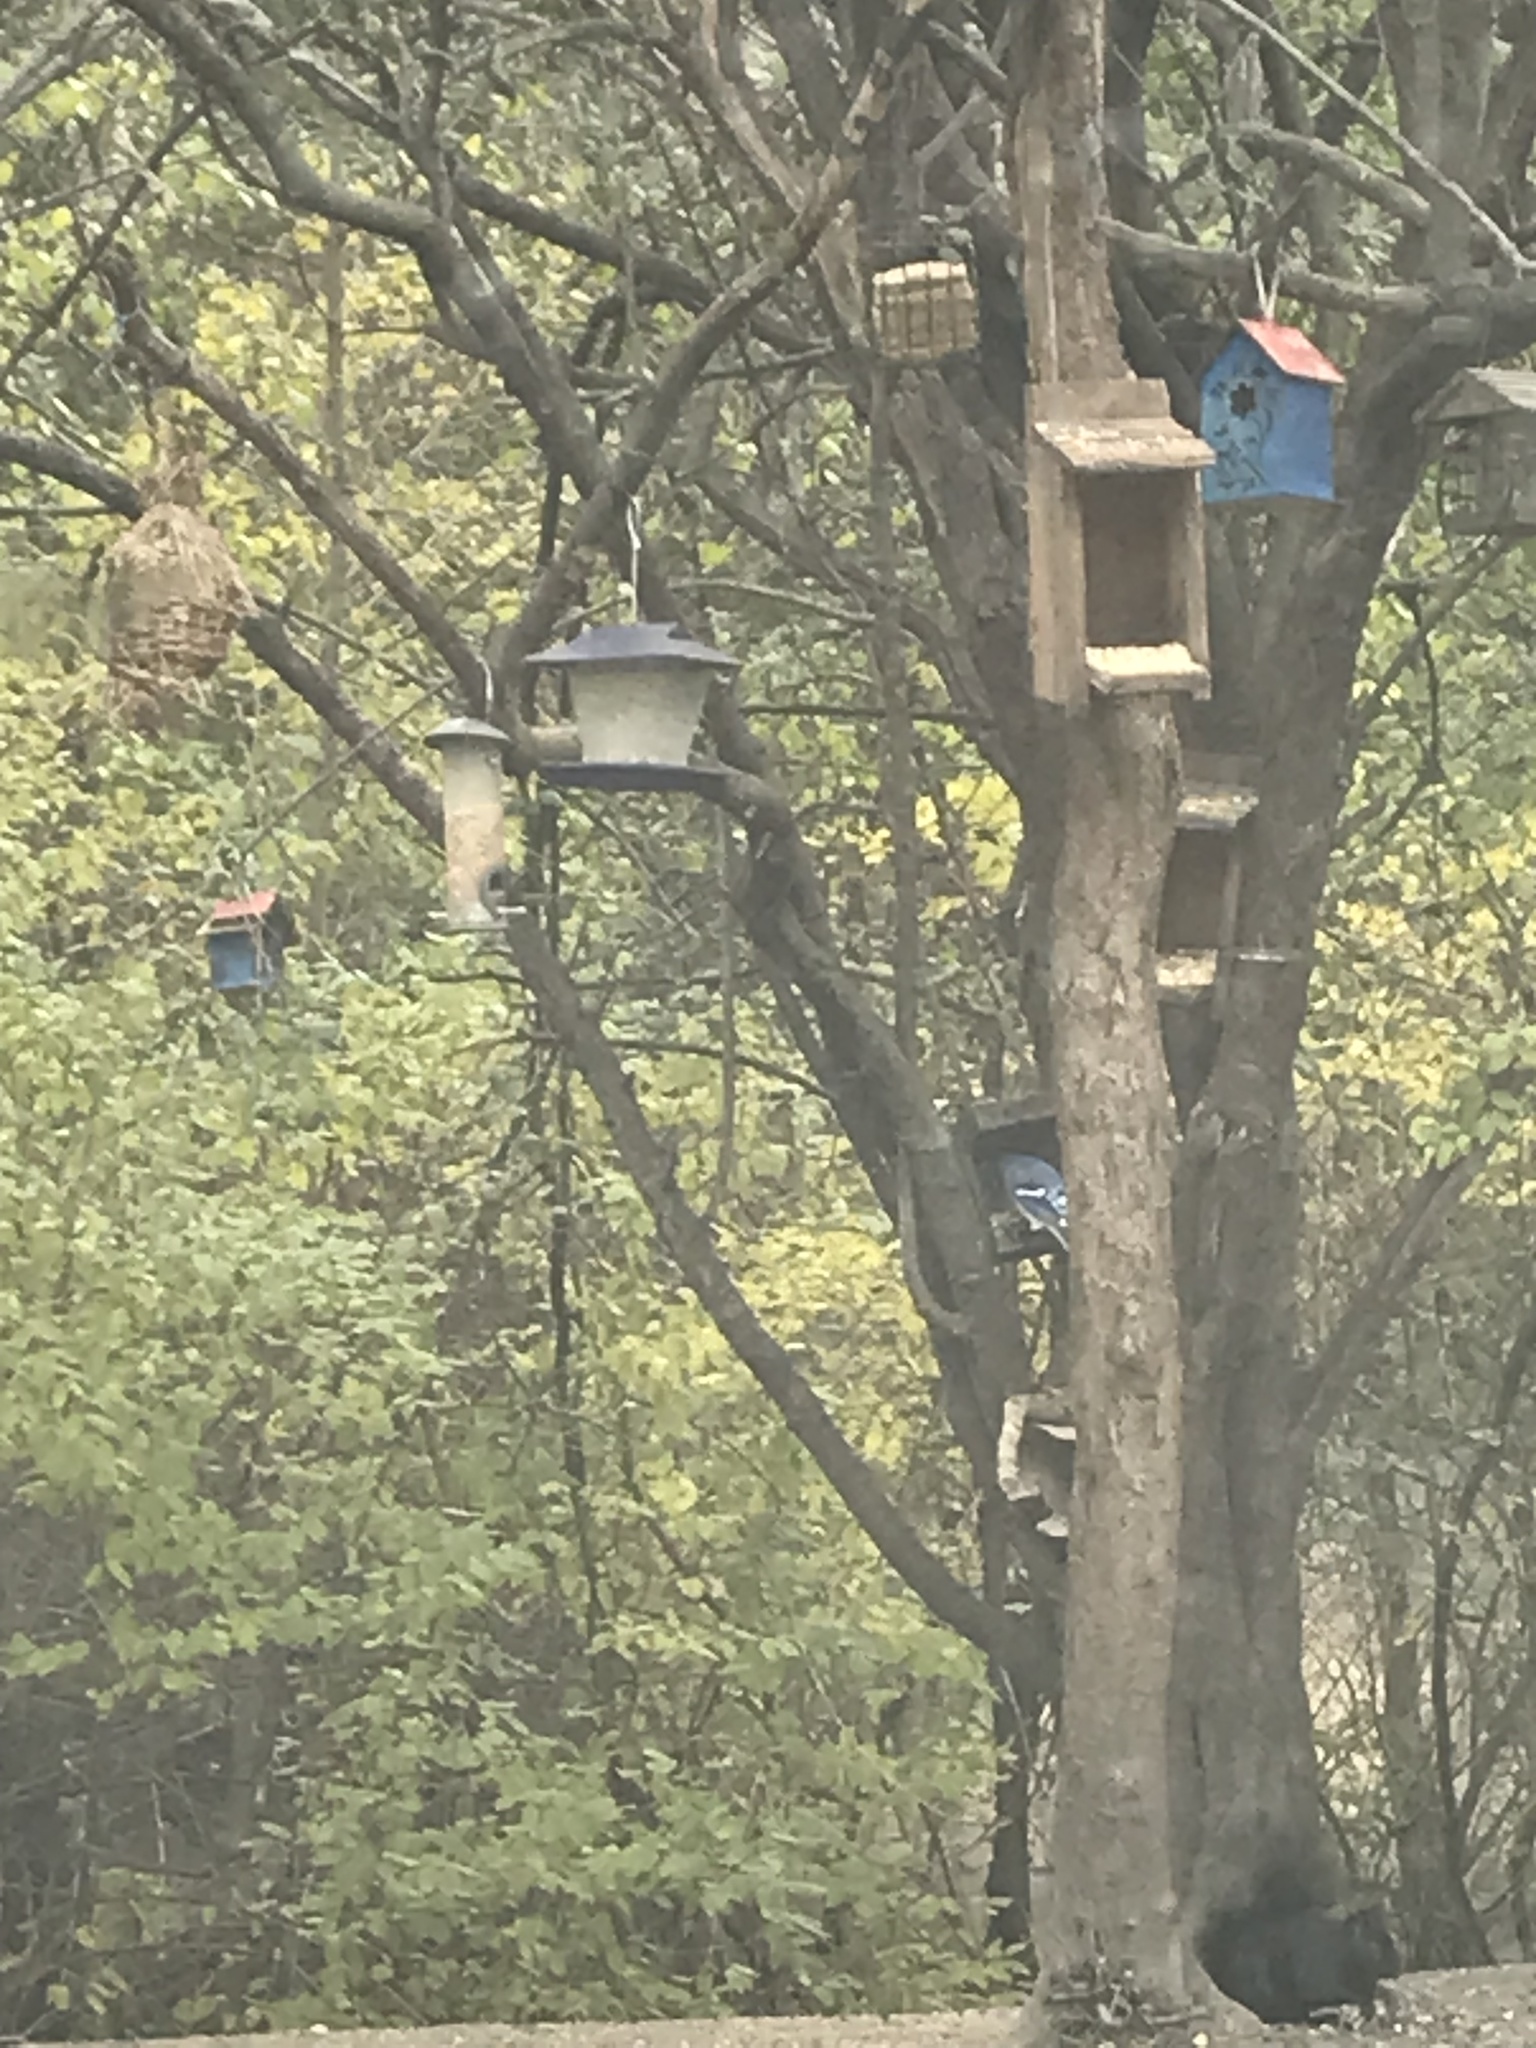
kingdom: Animalia
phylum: Chordata
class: Aves
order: Passeriformes
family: Corvidae
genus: Cyanocitta
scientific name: Cyanocitta cristata
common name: Blue jay
